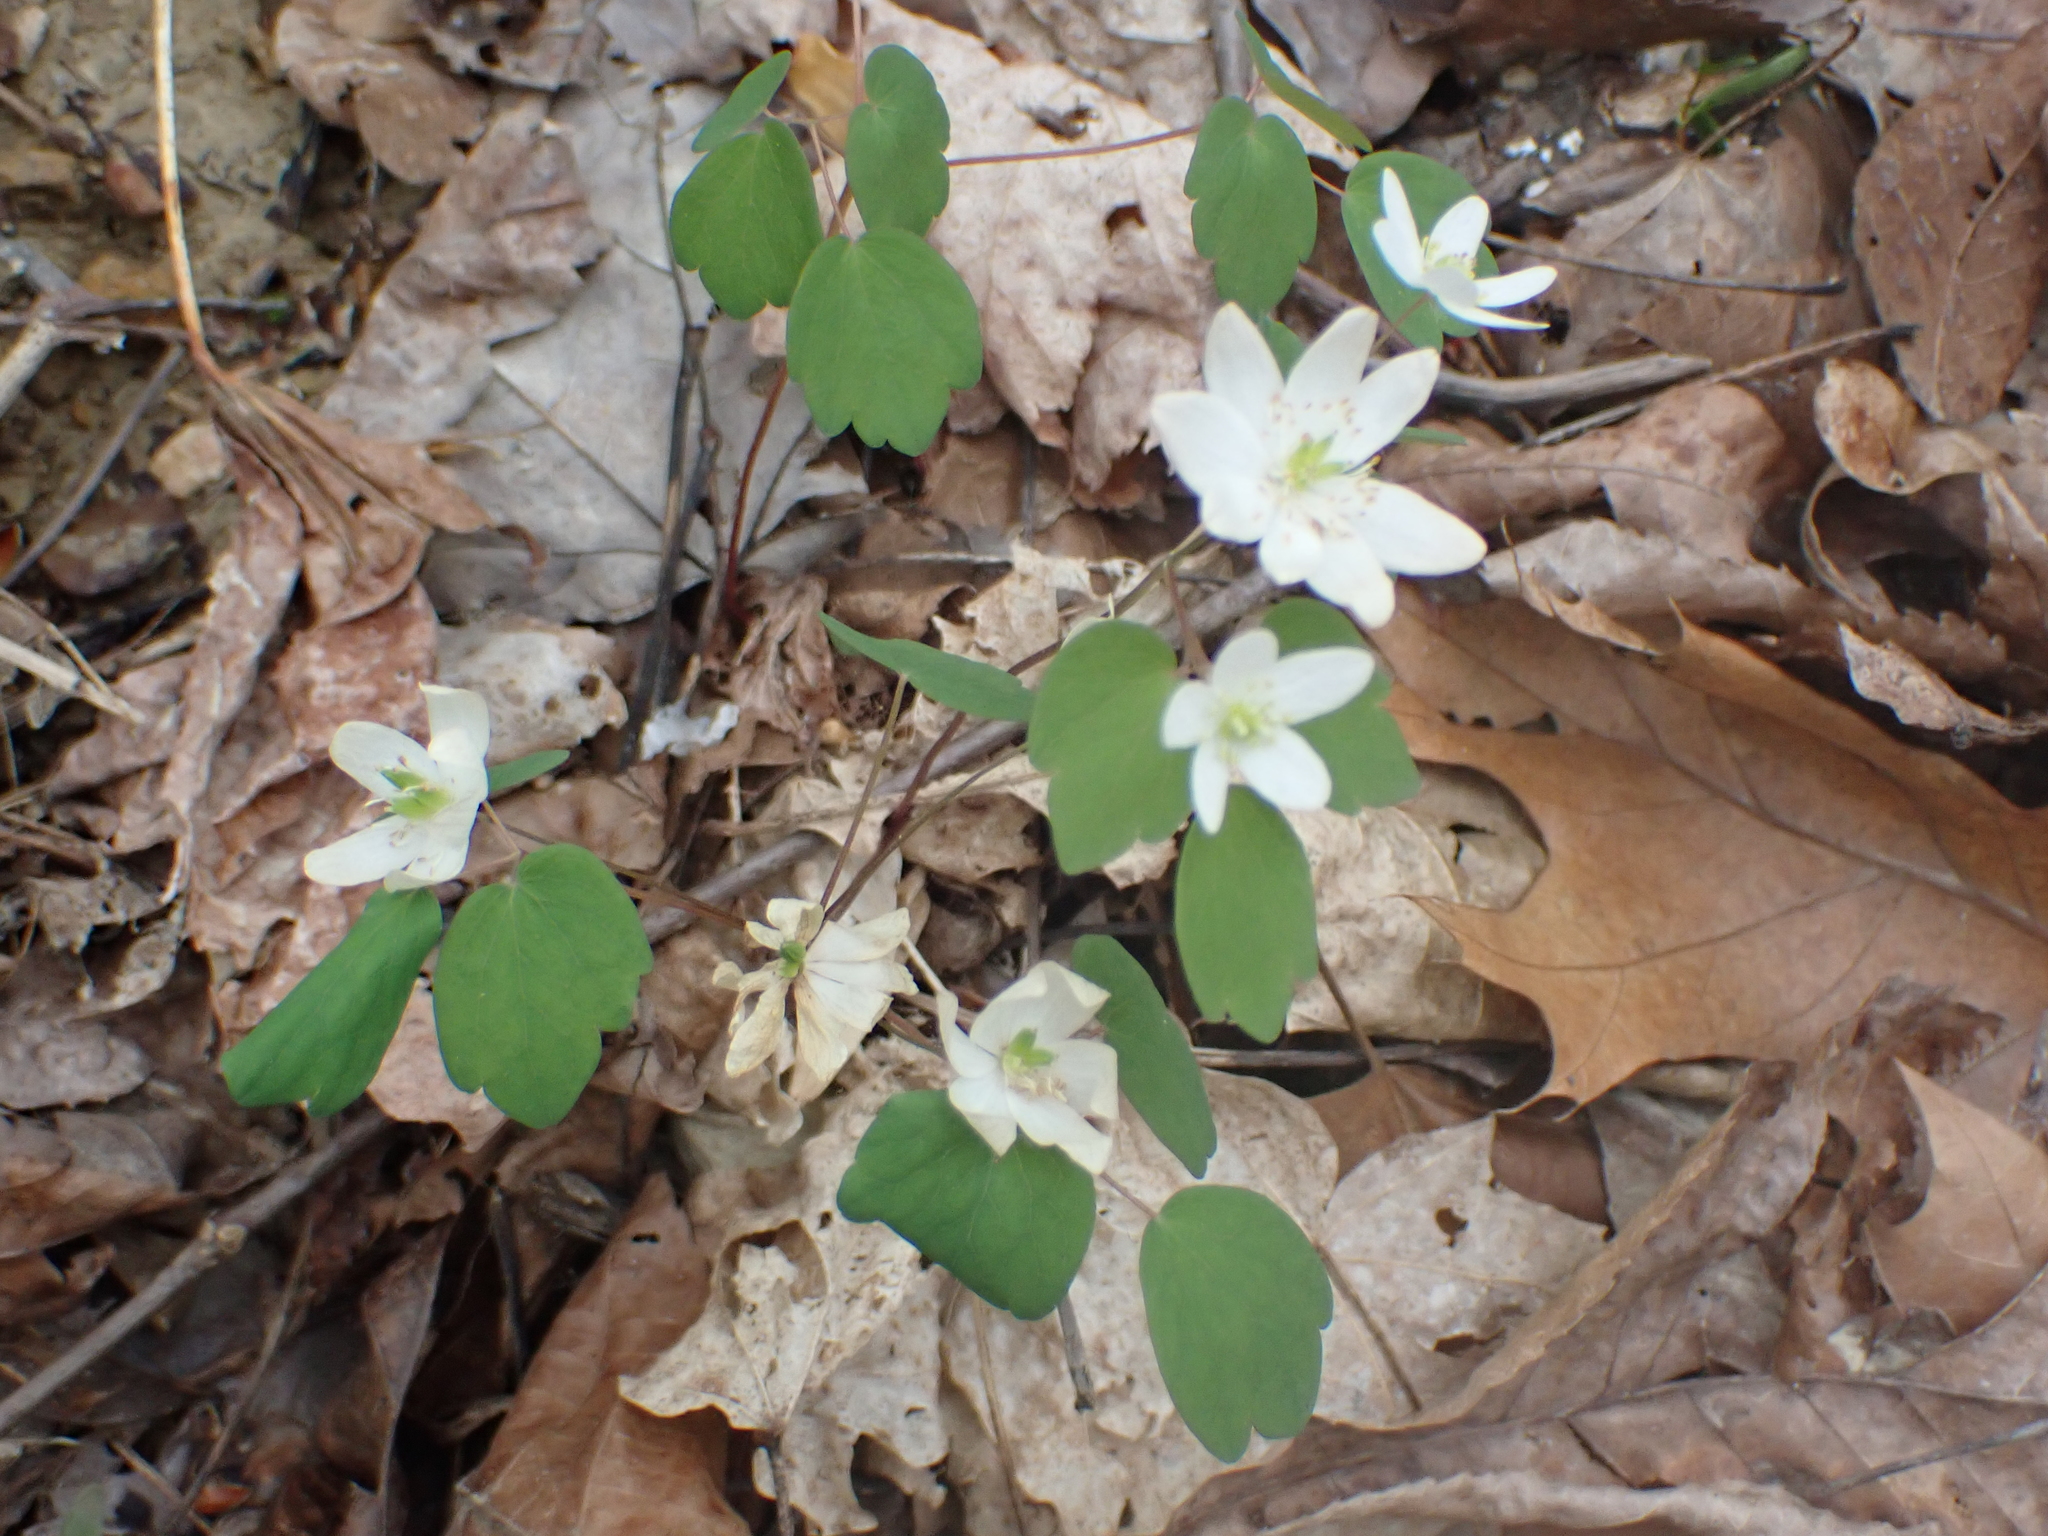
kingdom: Plantae
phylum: Tracheophyta
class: Magnoliopsida
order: Ranunculales
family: Ranunculaceae
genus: Thalictrum
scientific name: Thalictrum thalictroides
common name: Rue-anemone
